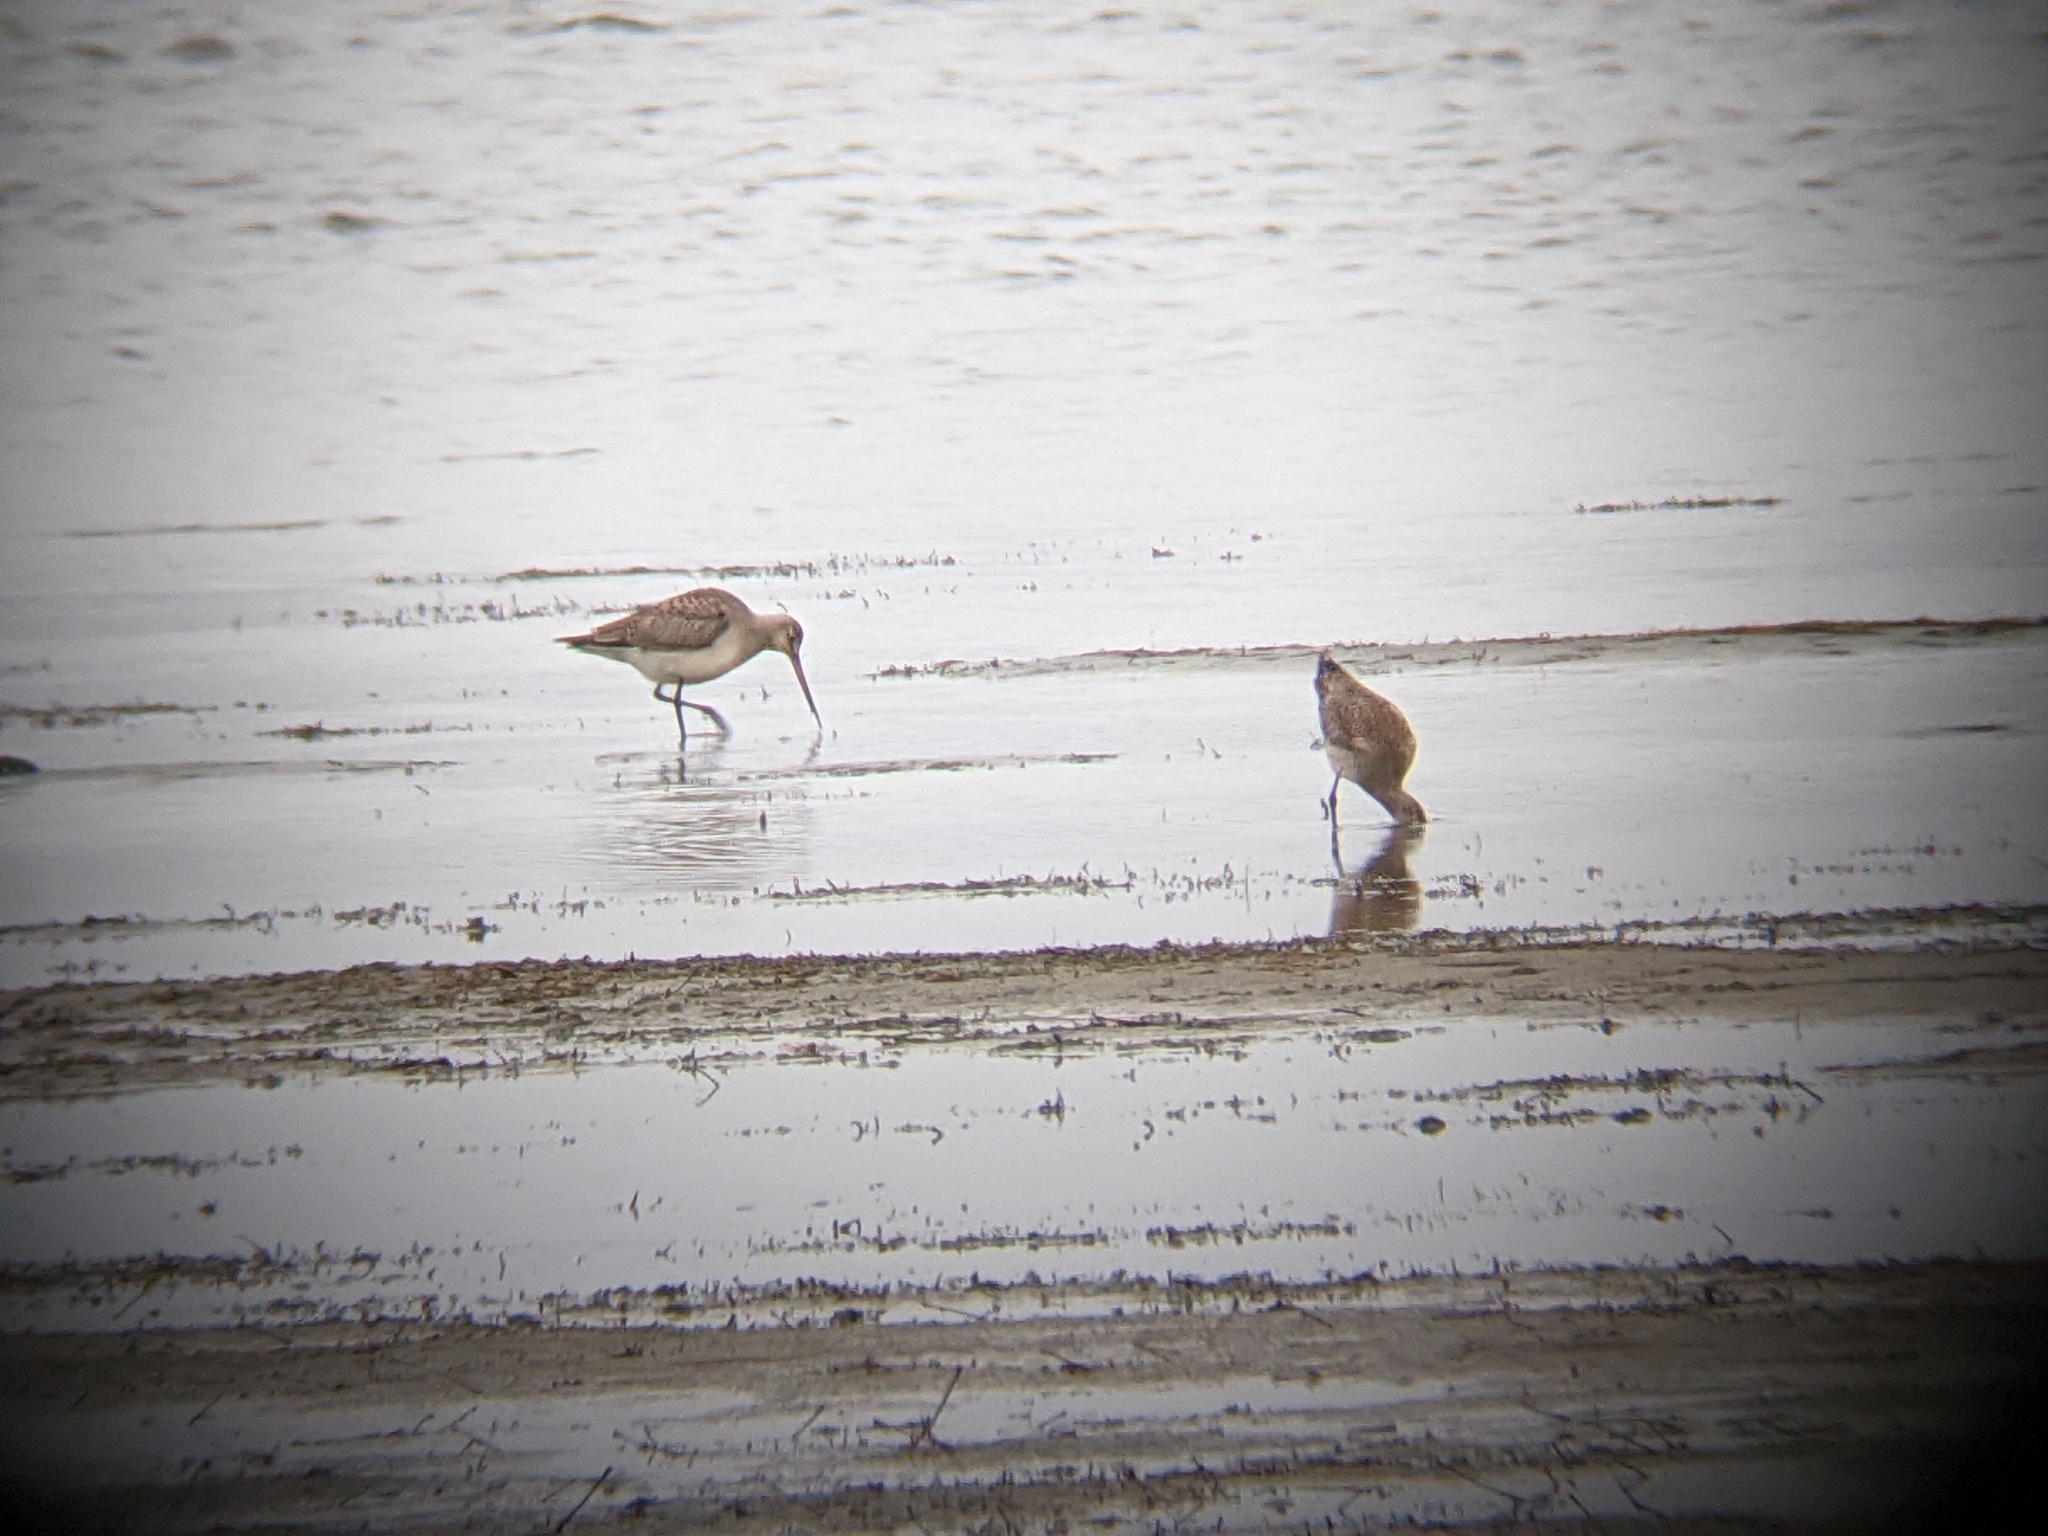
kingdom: Animalia
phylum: Chordata
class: Aves
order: Charadriiformes
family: Scolopacidae
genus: Limosa
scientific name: Limosa haemastica
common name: Hudsonian godwit
